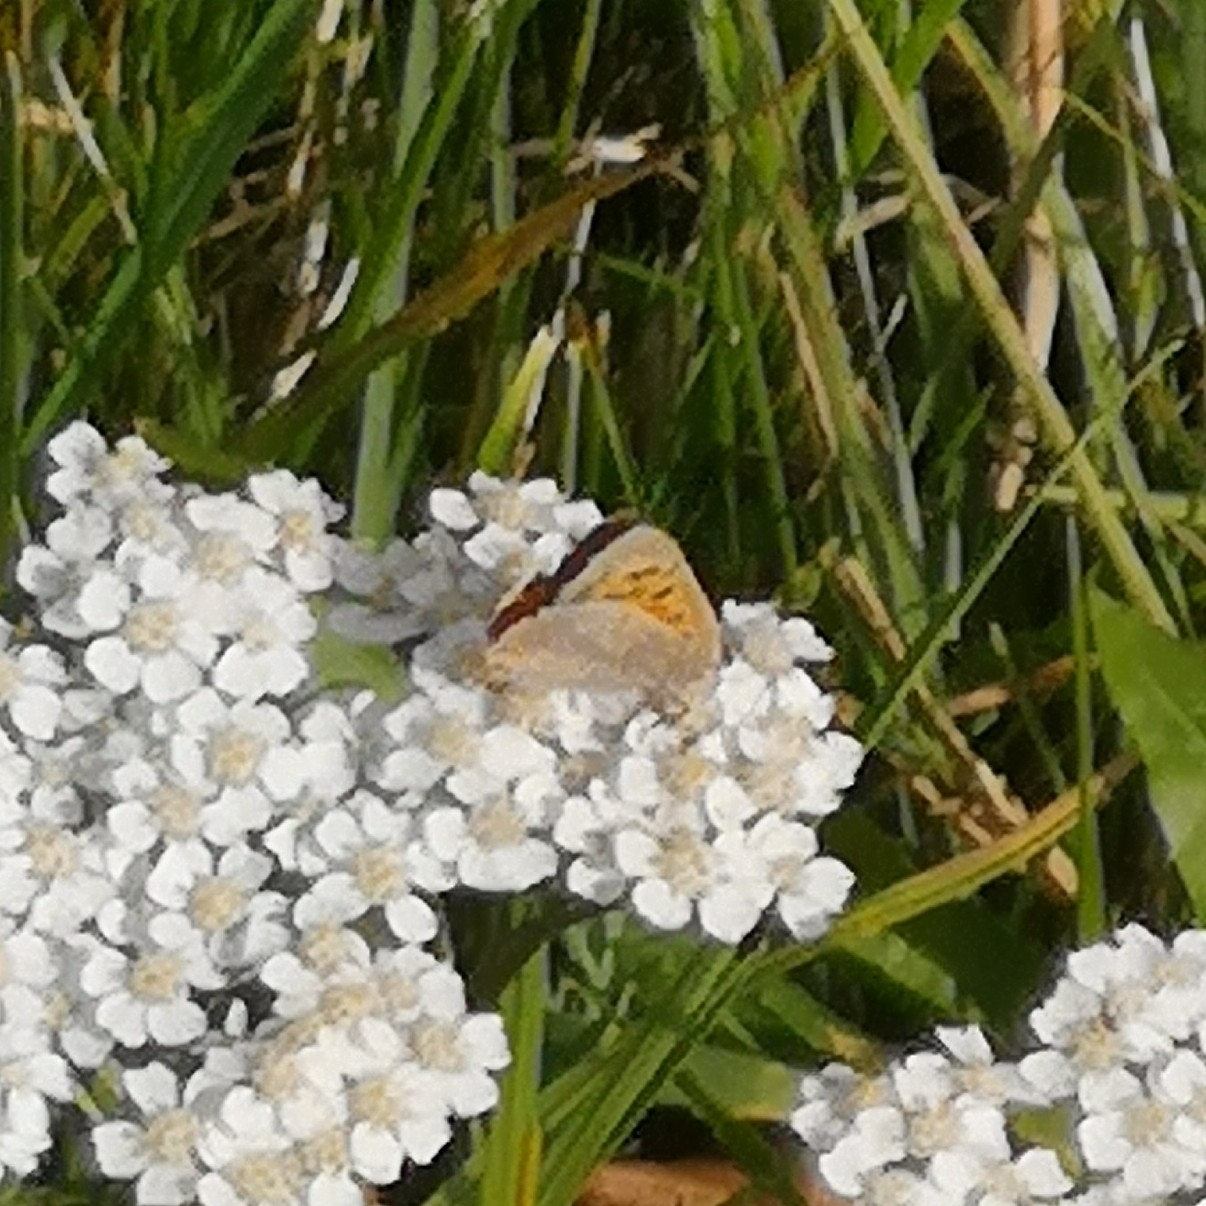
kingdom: Animalia
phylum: Arthropoda
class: Insecta
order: Lepidoptera
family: Lycaenidae
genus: Lycaena
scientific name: Lycaena phlaeas
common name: Small copper
